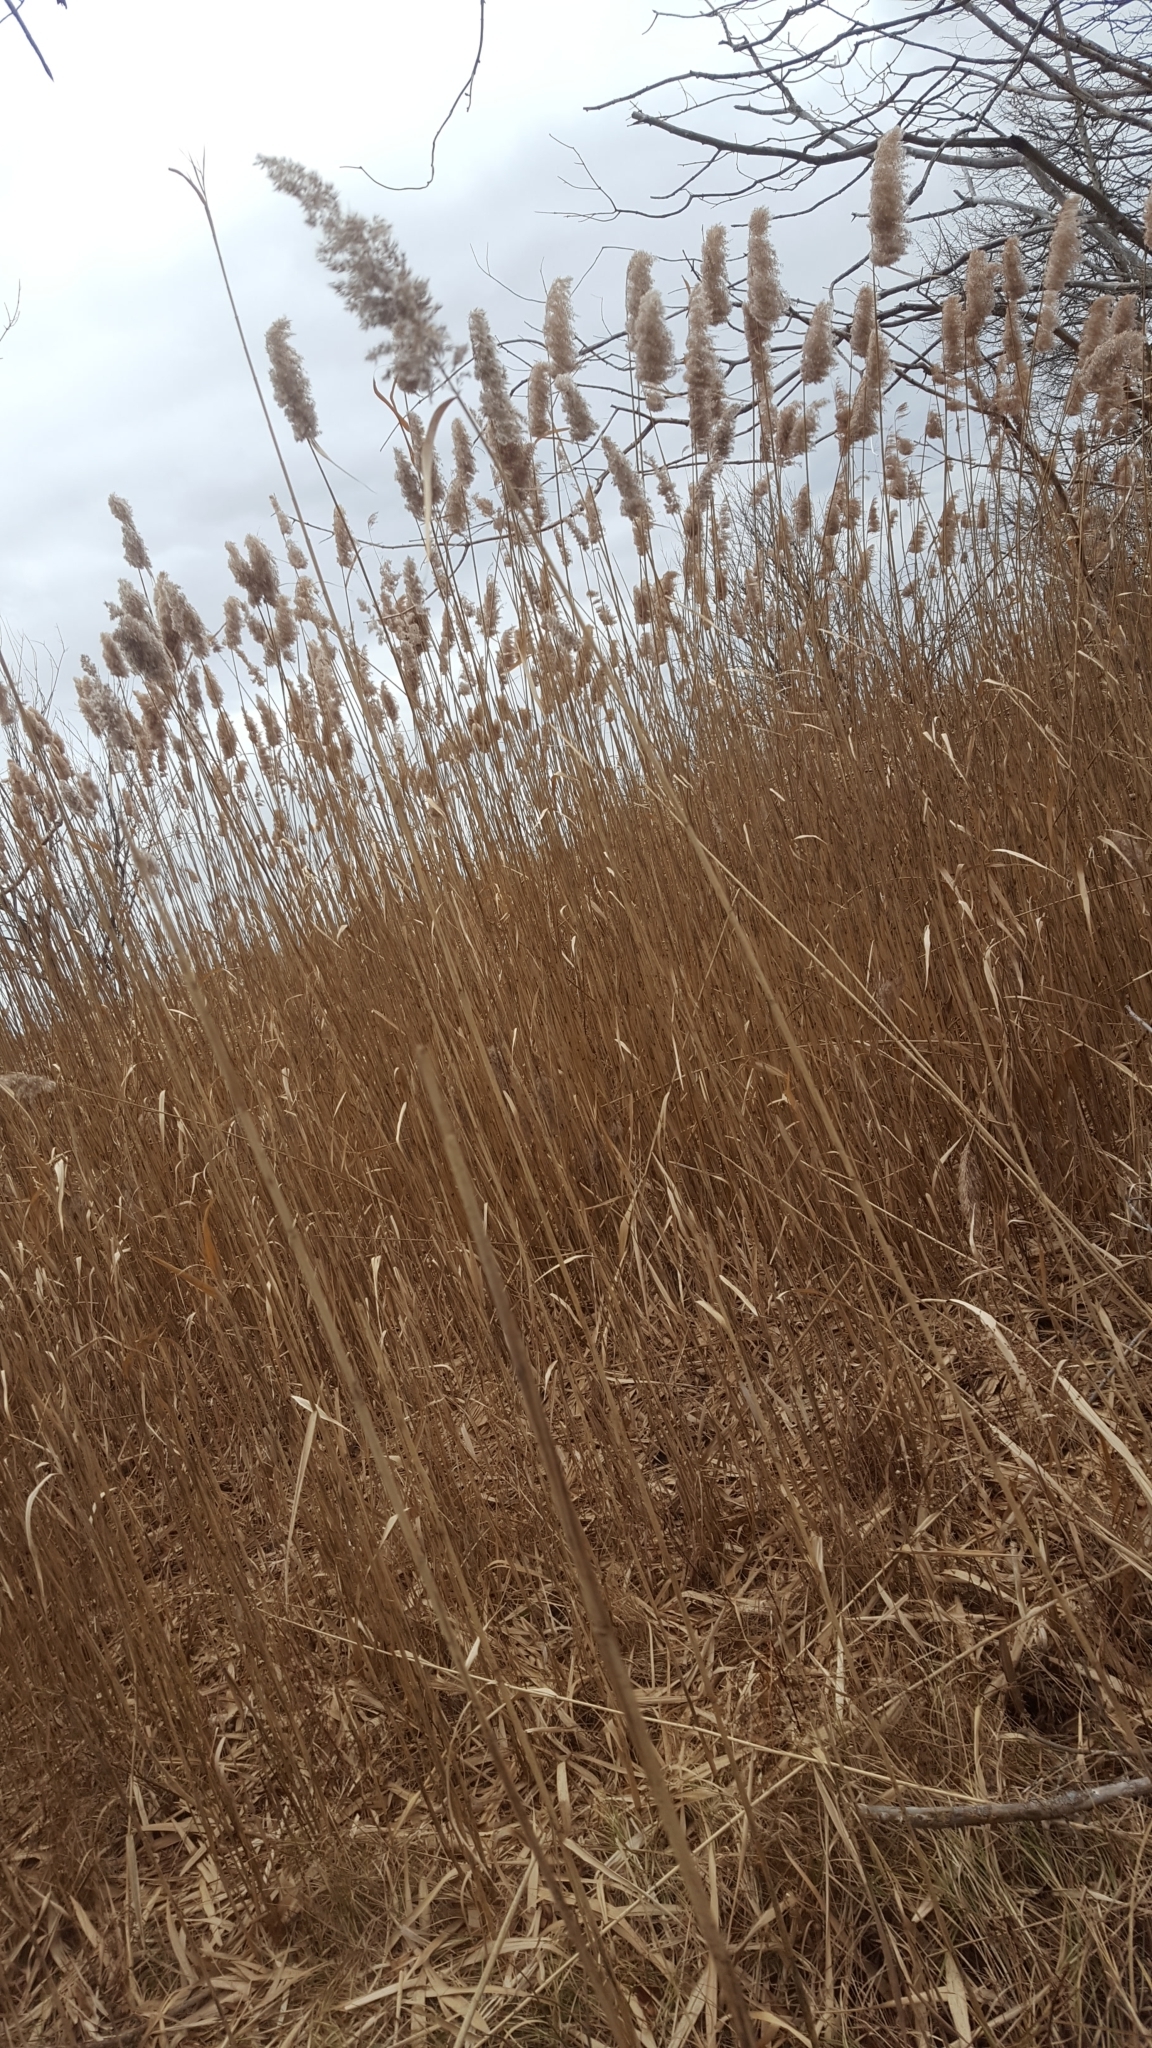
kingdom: Plantae
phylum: Tracheophyta
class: Liliopsida
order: Poales
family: Poaceae
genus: Phragmites
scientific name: Phragmites australis
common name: Common reed
